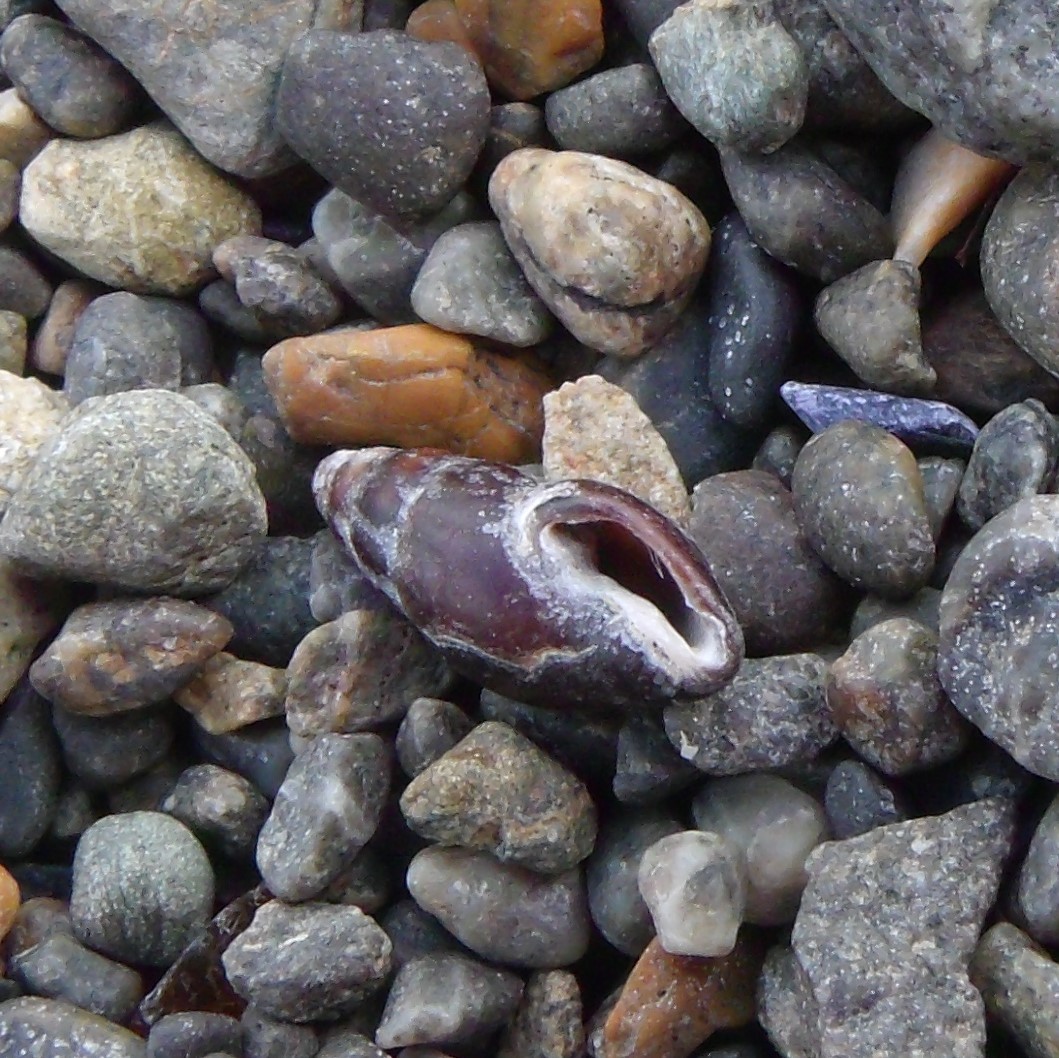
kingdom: Animalia
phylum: Mollusca
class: Gastropoda
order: Neogastropoda
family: Mangeliidae
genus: Neoguraleus
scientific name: Neoguraleus lyallensis
